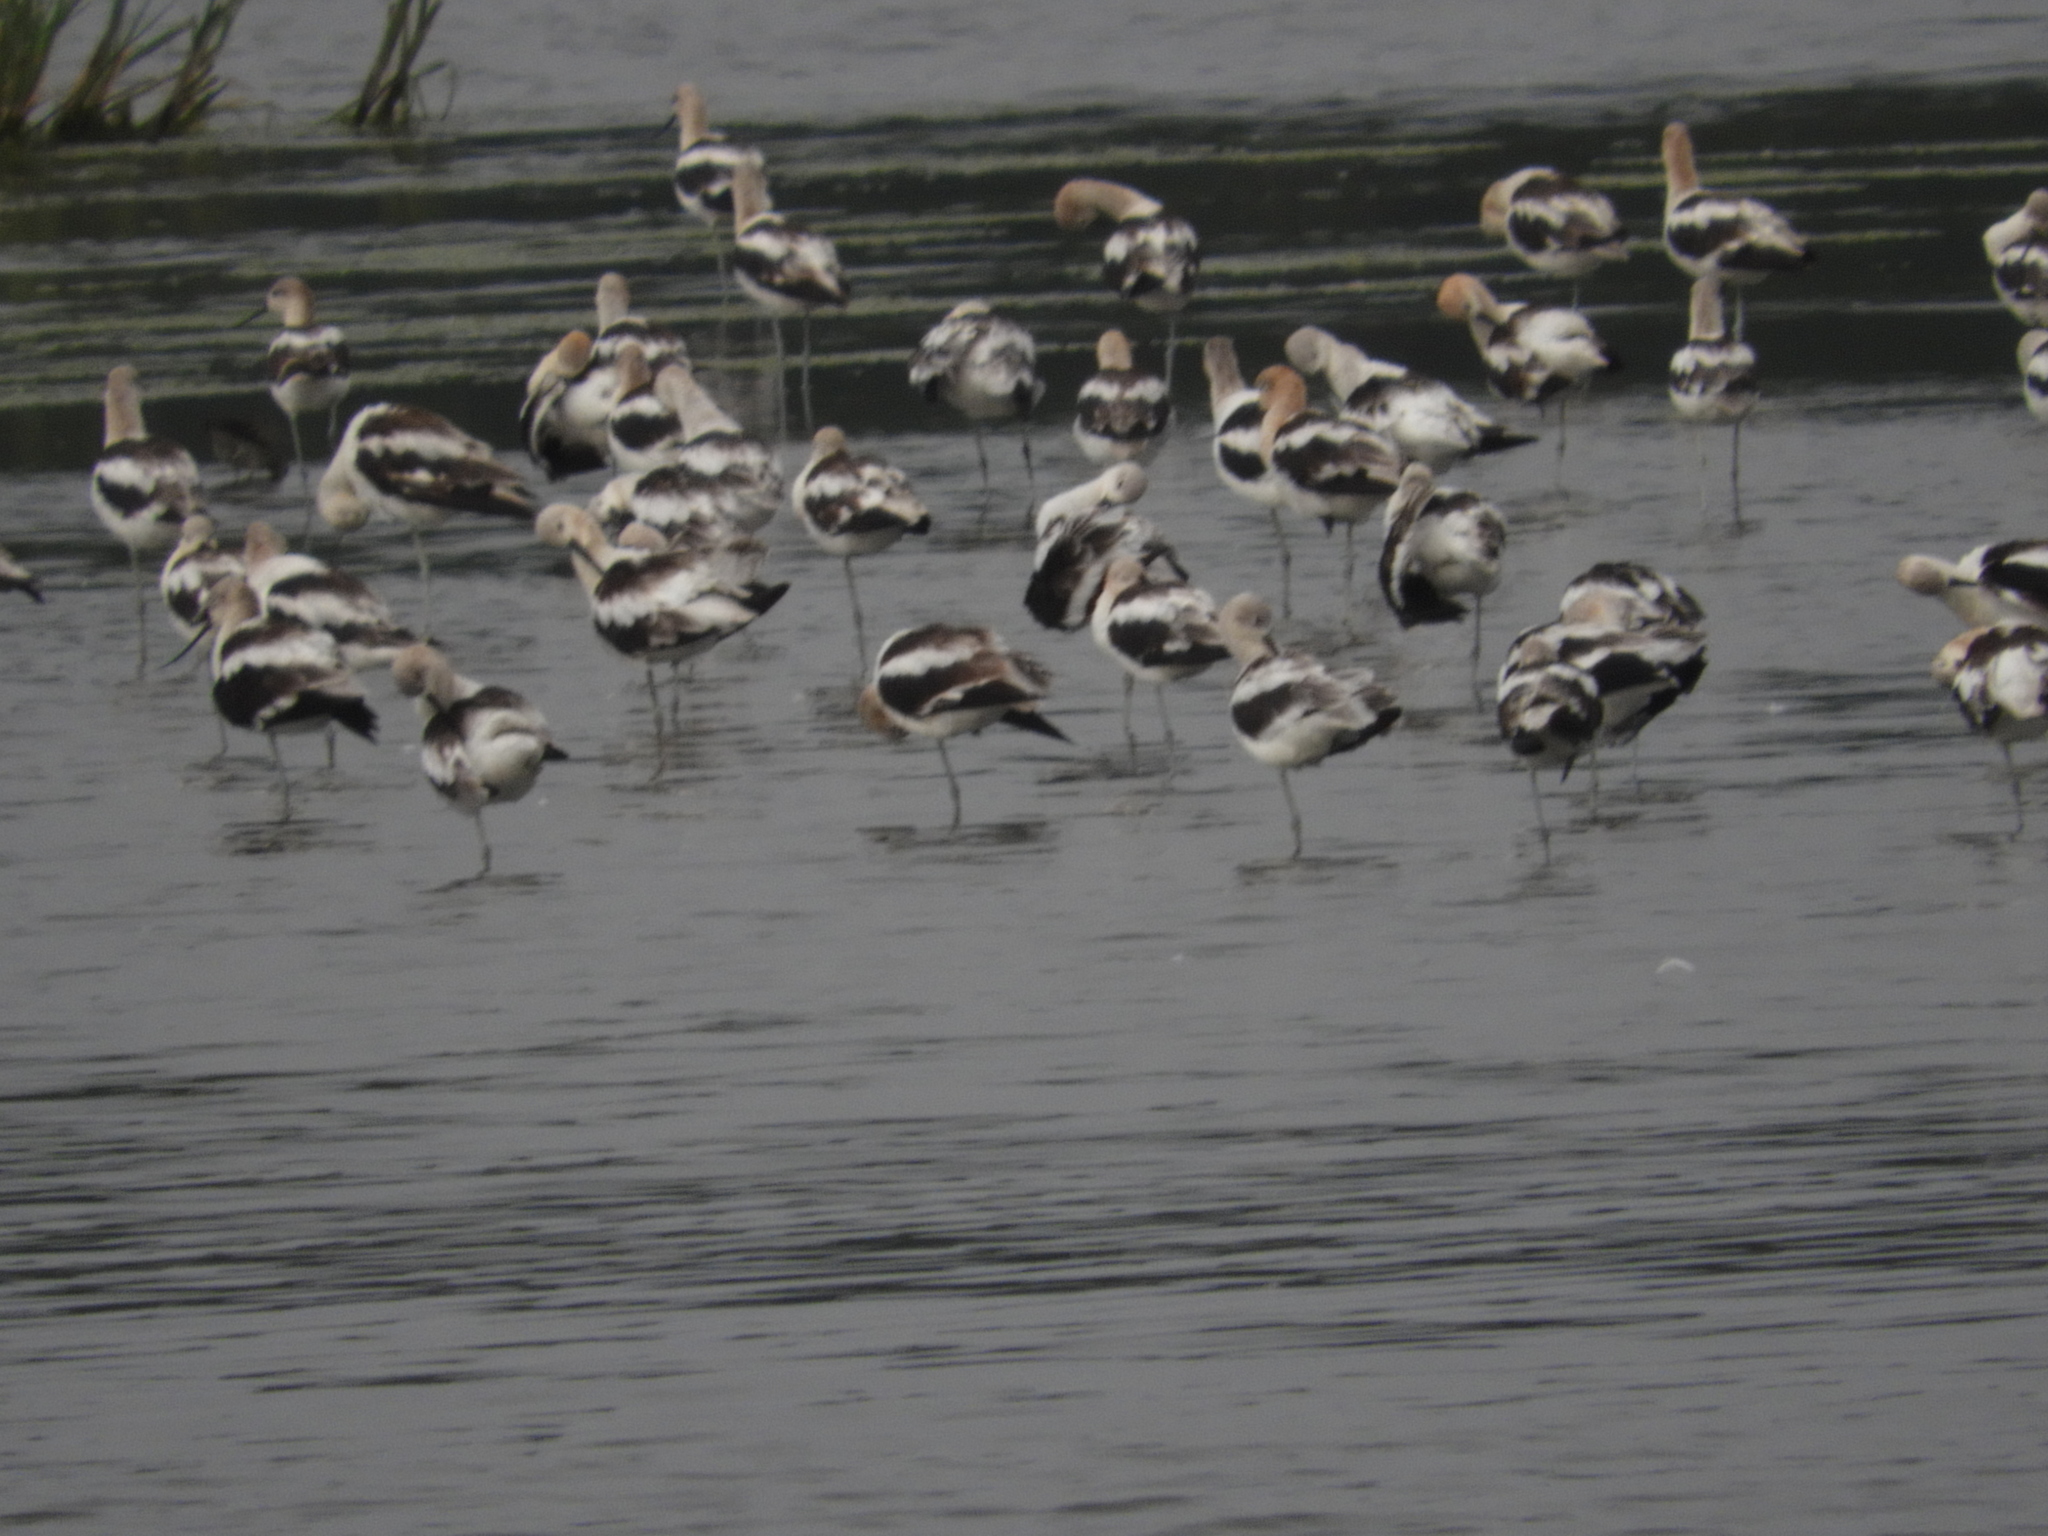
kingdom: Animalia
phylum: Chordata
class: Aves
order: Charadriiformes
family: Recurvirostridae
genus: Recurvirostra
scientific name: Recurvirostra americana
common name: American avocet
